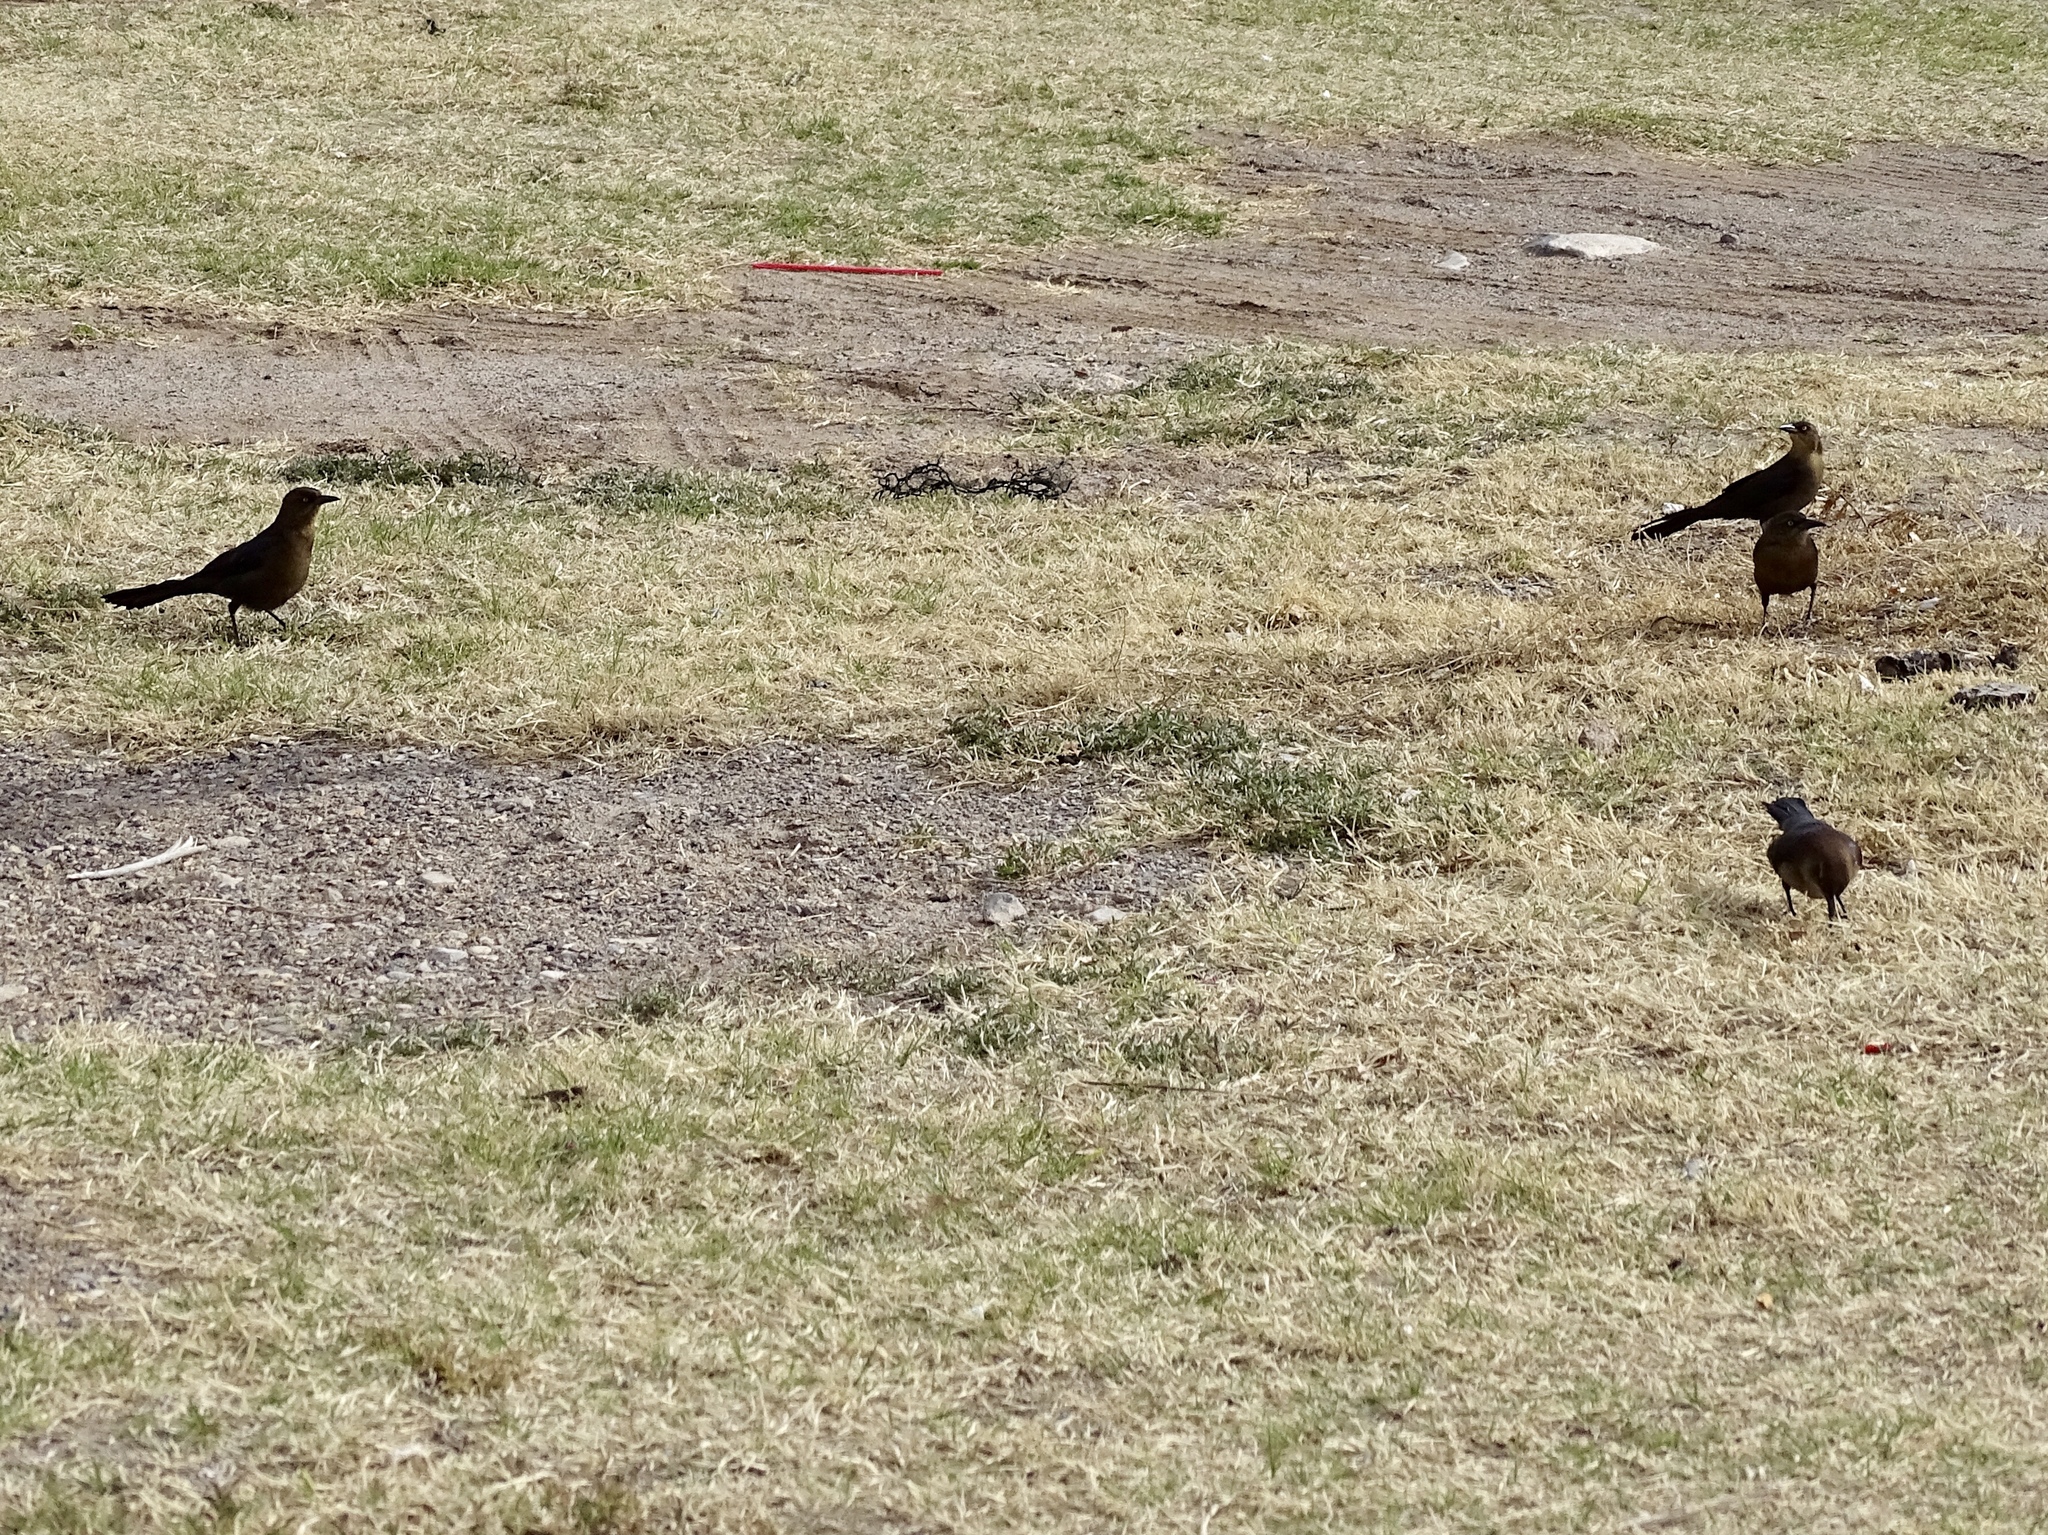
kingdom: Animalia
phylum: Chordata
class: Aves
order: Passeriformes
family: Icteridae
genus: Quiscalus
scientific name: Quiscalus mexicanus
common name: Great-tailed grackle
